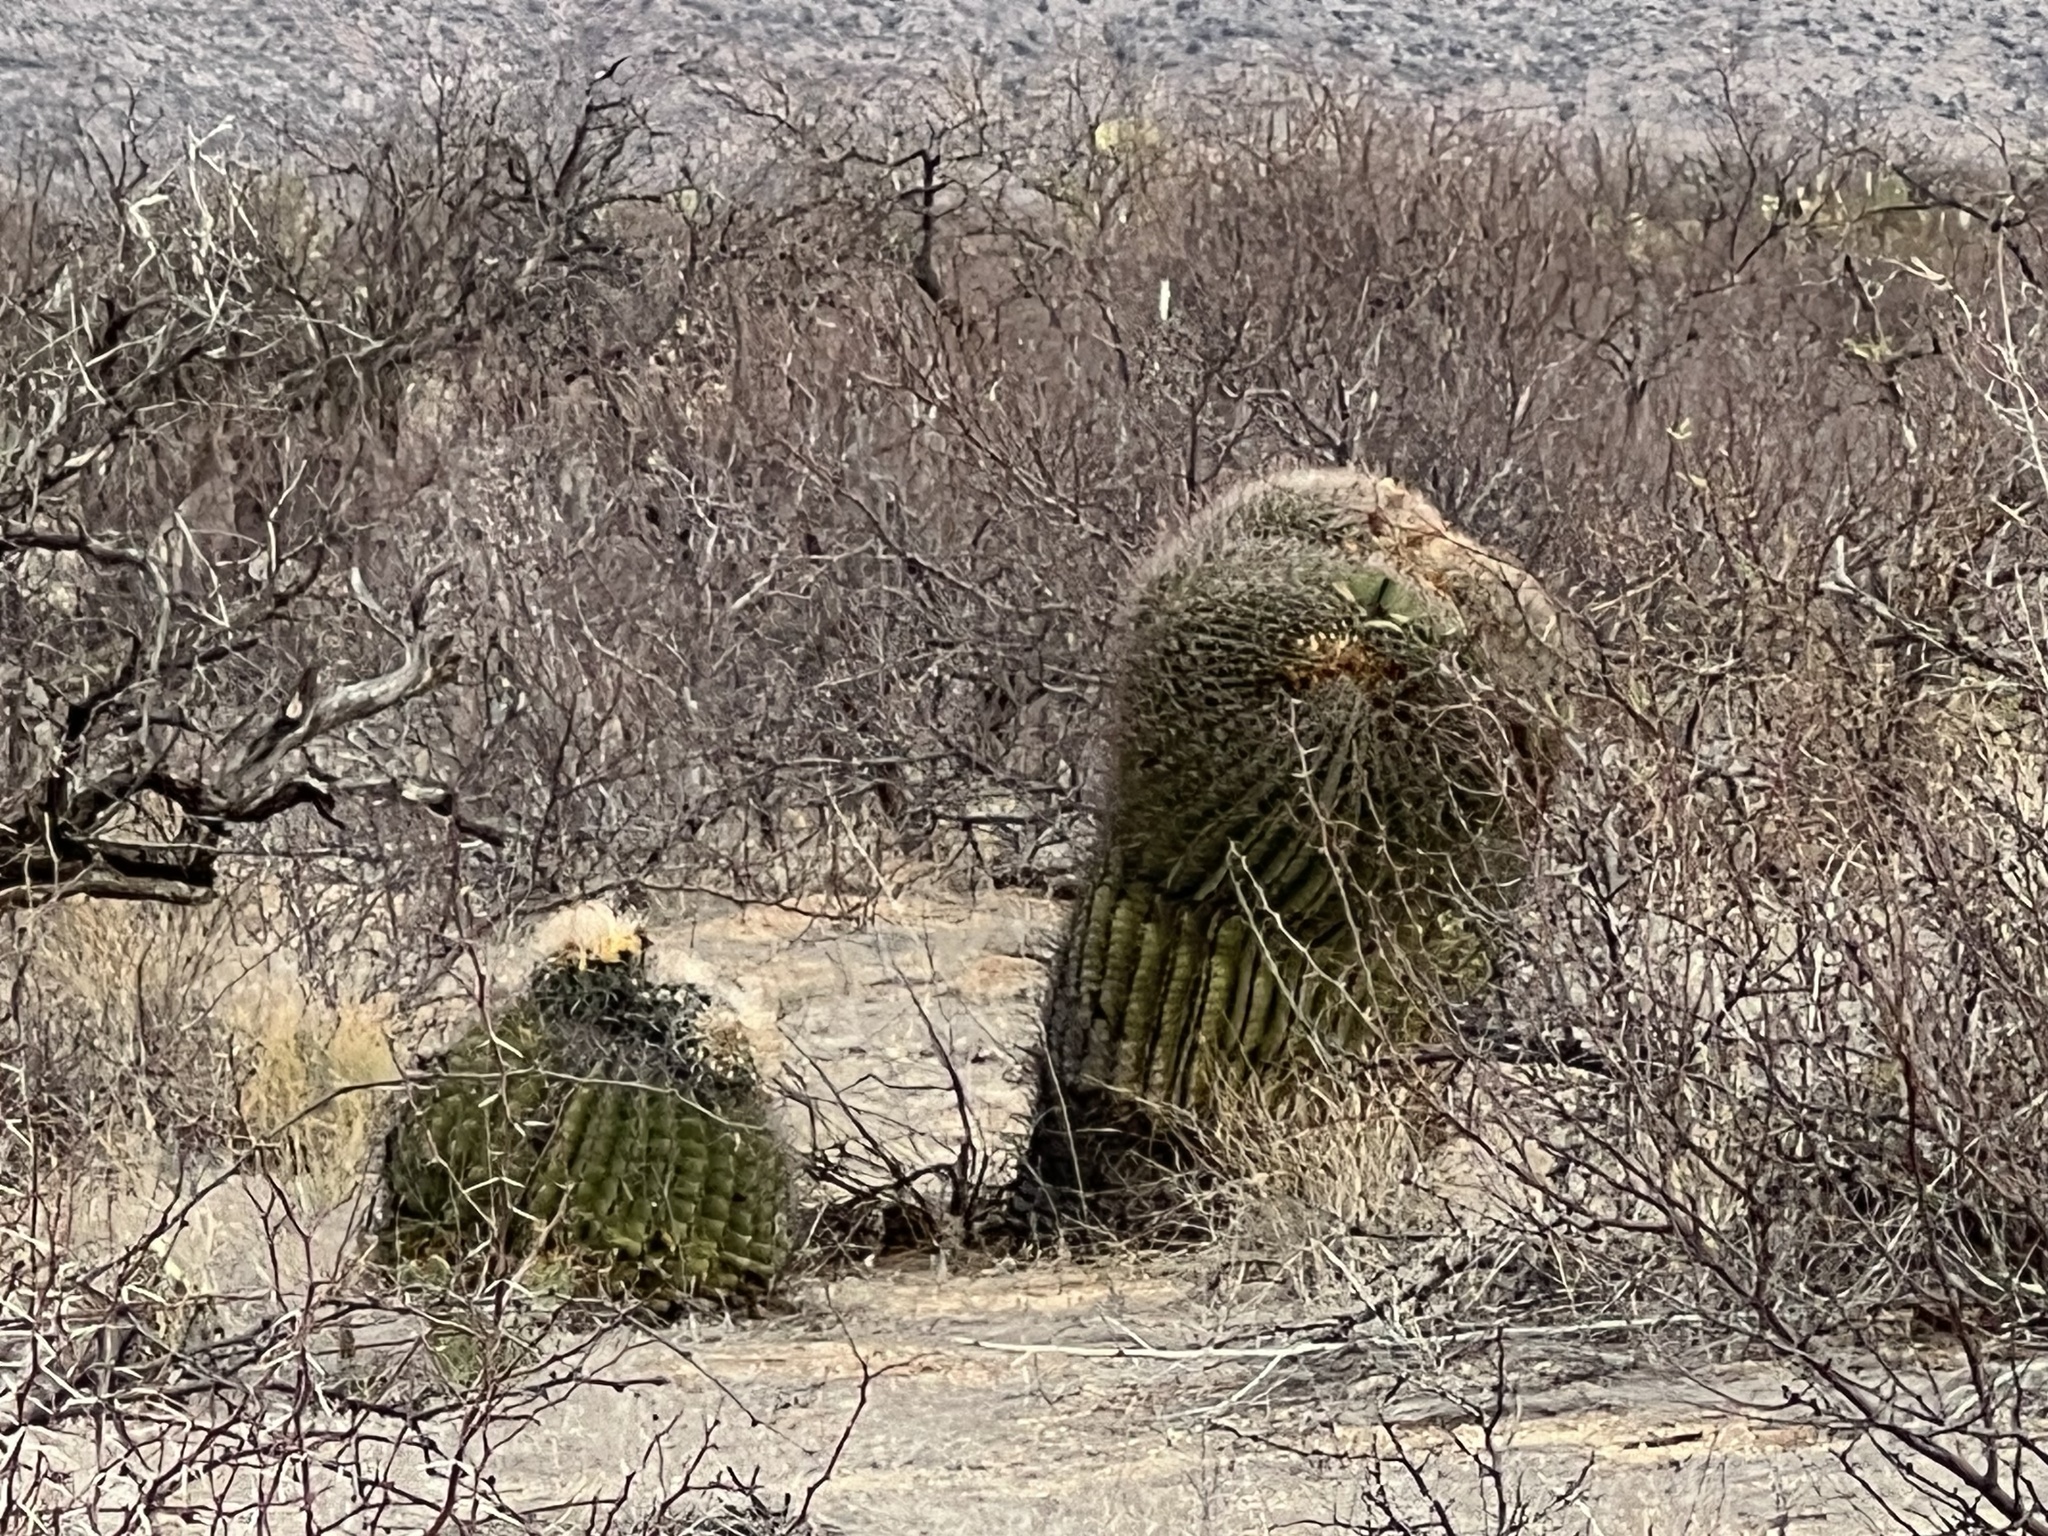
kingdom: Plantae
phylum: Tracheophyta
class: Magnoliopsida
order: Caryophyllales
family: Cactaceae
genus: Ferocactus
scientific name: Ferocactus wislizeni
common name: Candy barrel cactus
